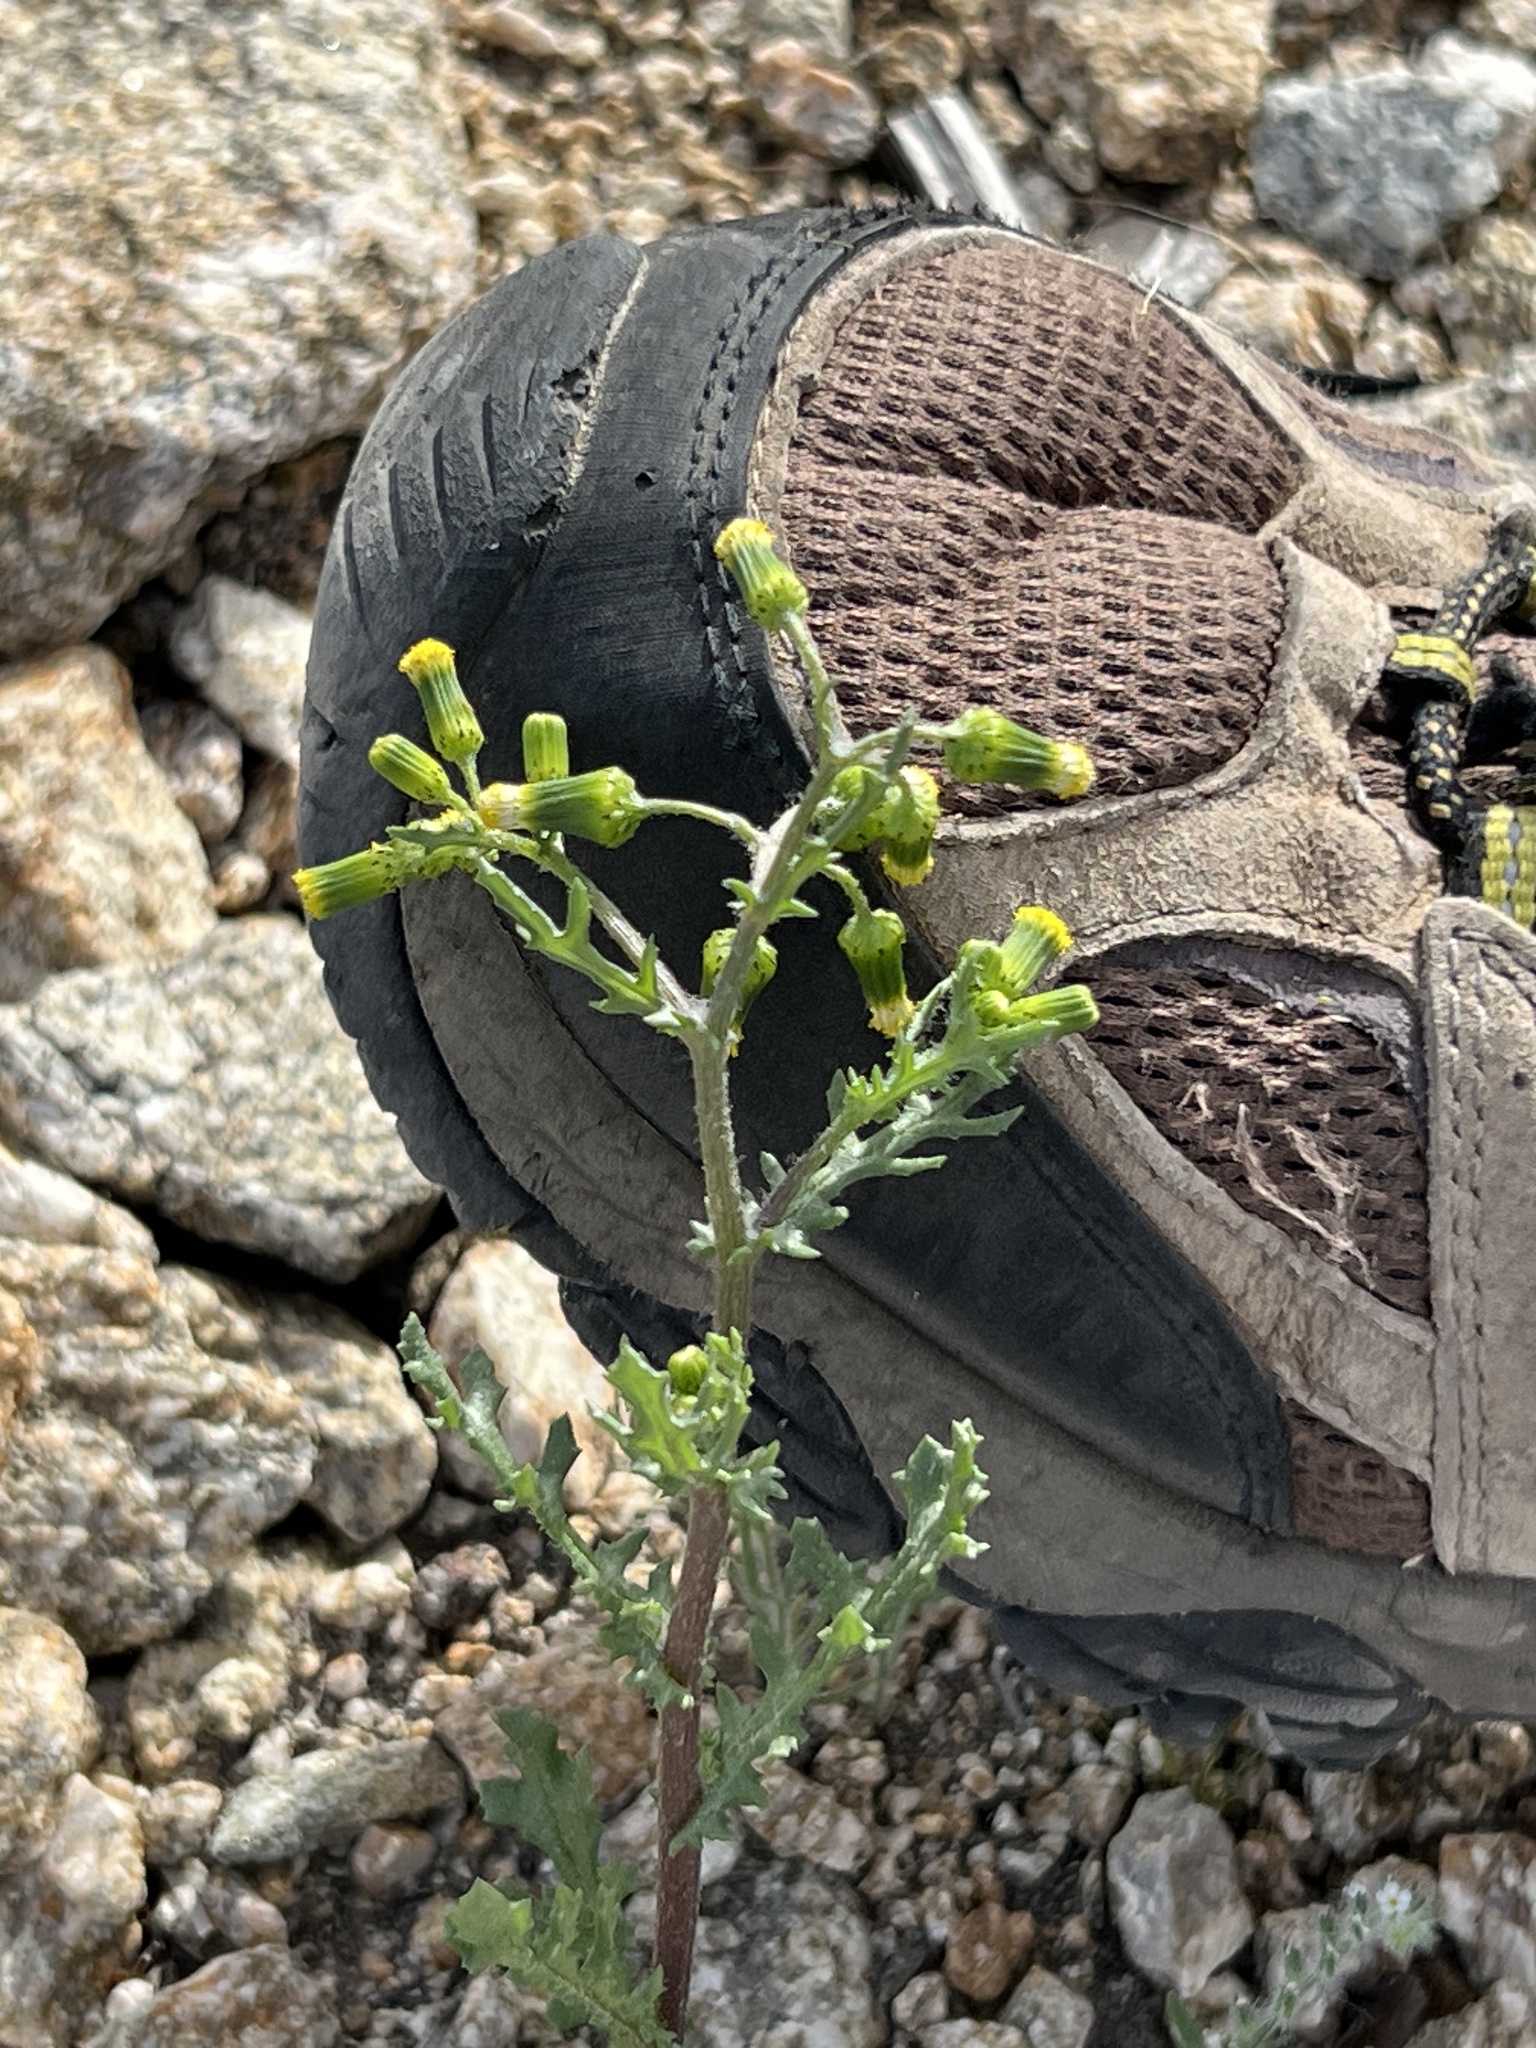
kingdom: Plantae
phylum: Tracheophyta
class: Magnoliopsida
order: Asterales
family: Asteraceae
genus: Senecio
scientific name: Senecio vulgaris
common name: Old-man-in-the-spring
